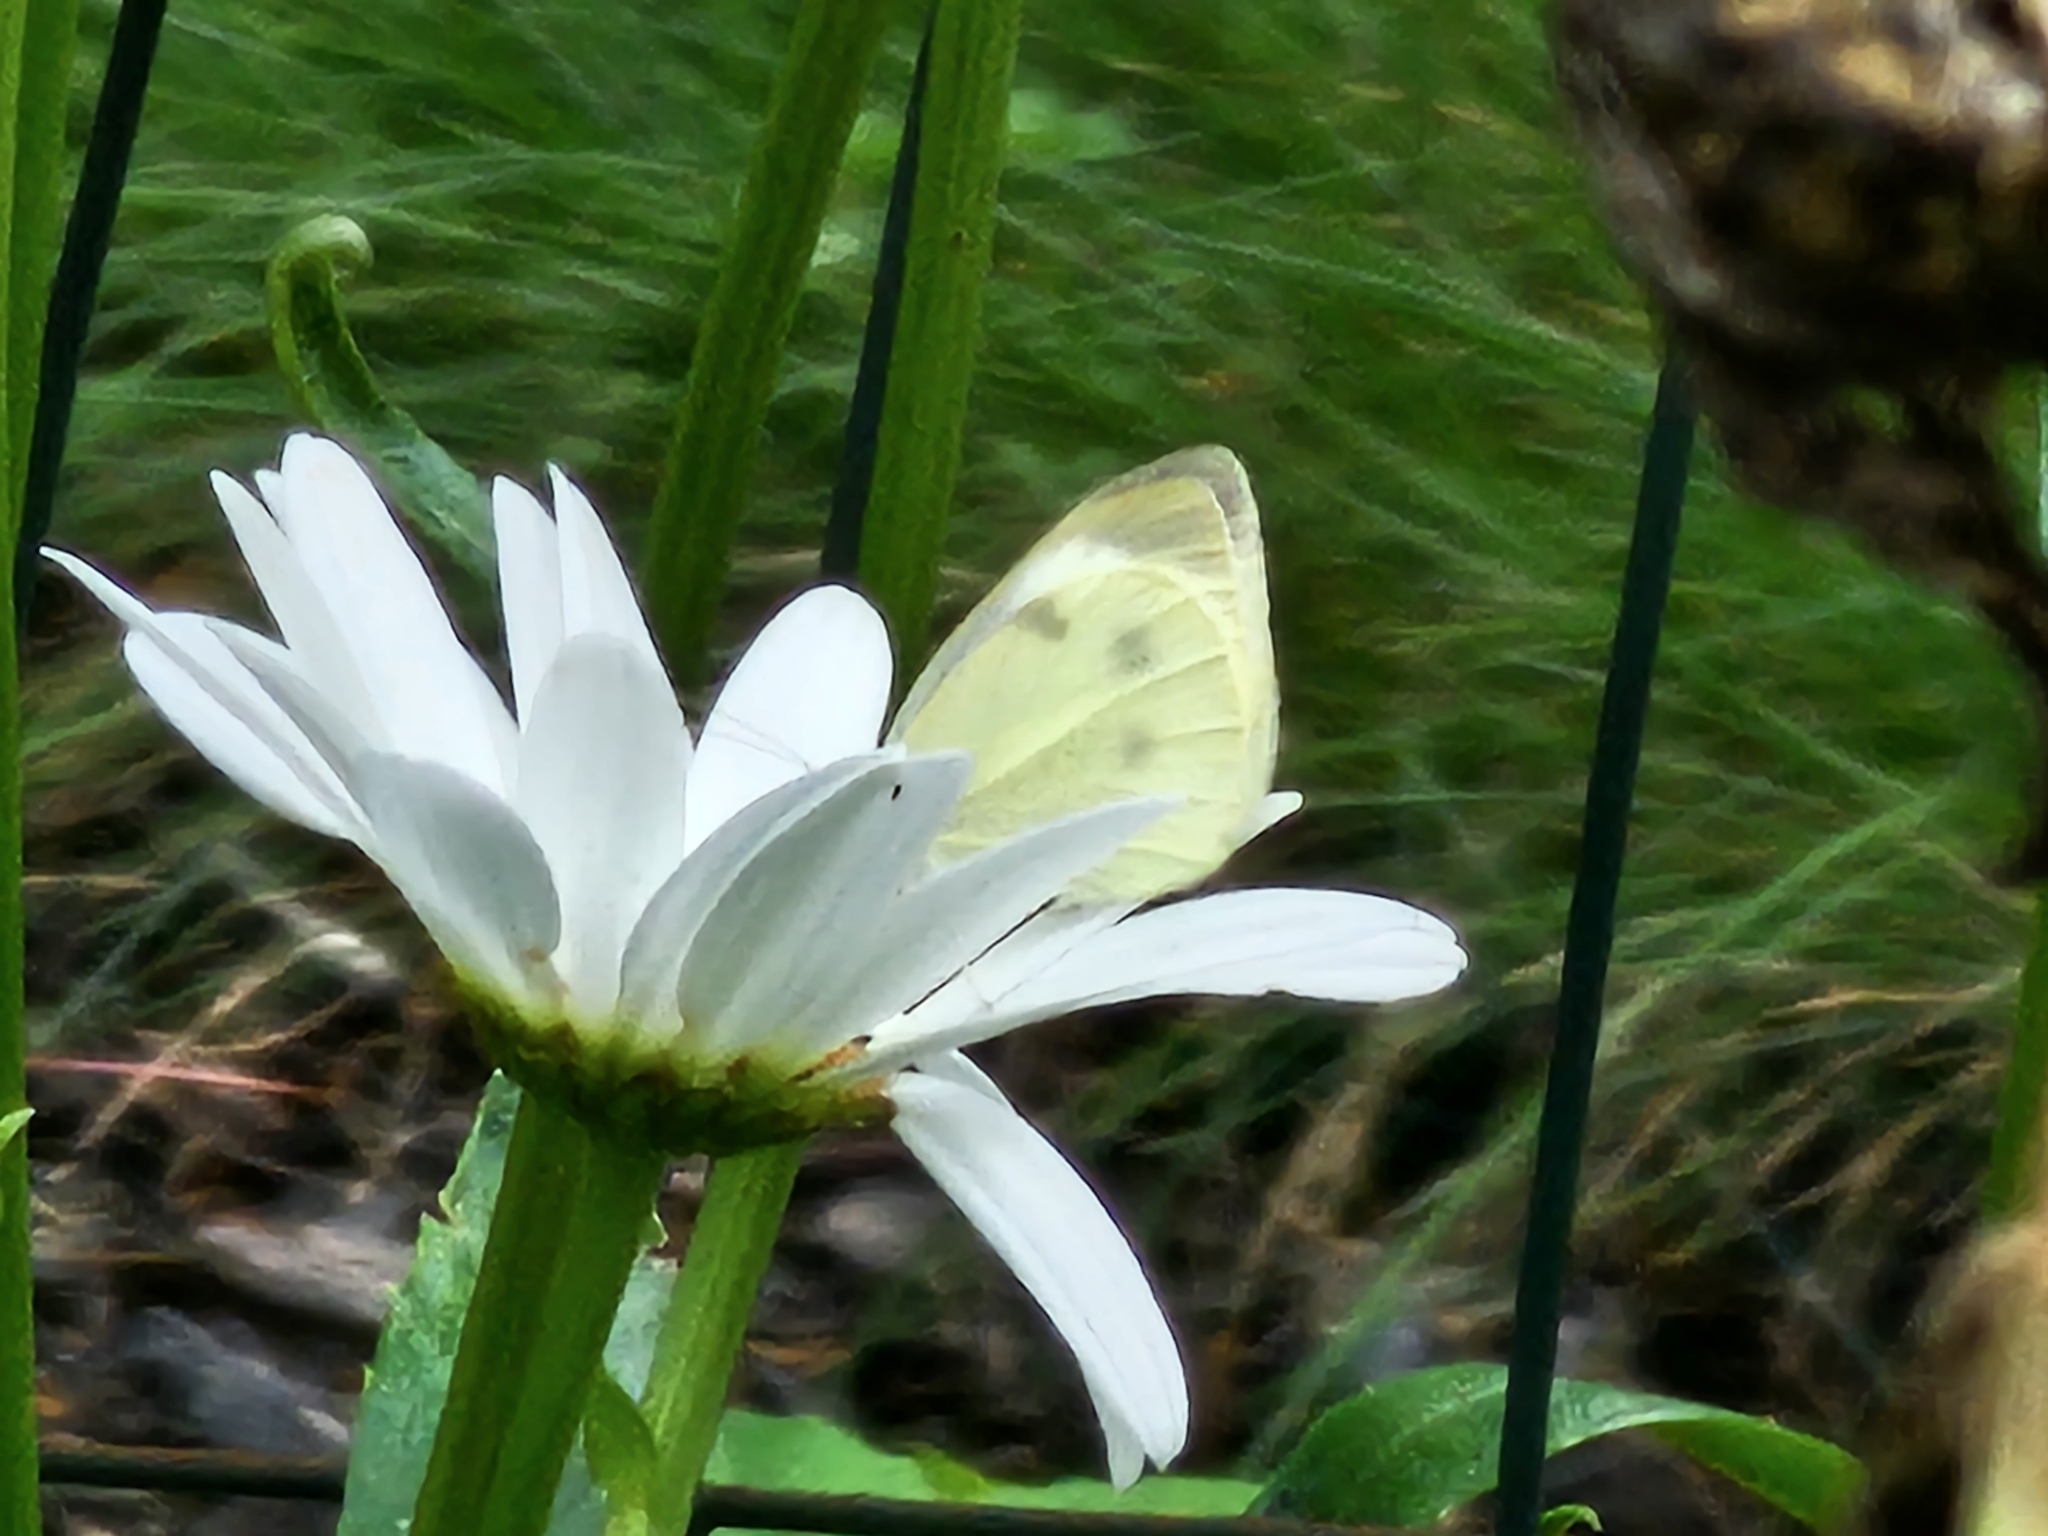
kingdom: Animalia
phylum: Arthropoda
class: Insecta
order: Lepidoptera
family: Pieridae
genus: Pieris
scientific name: Pieris rapae
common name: Small white
